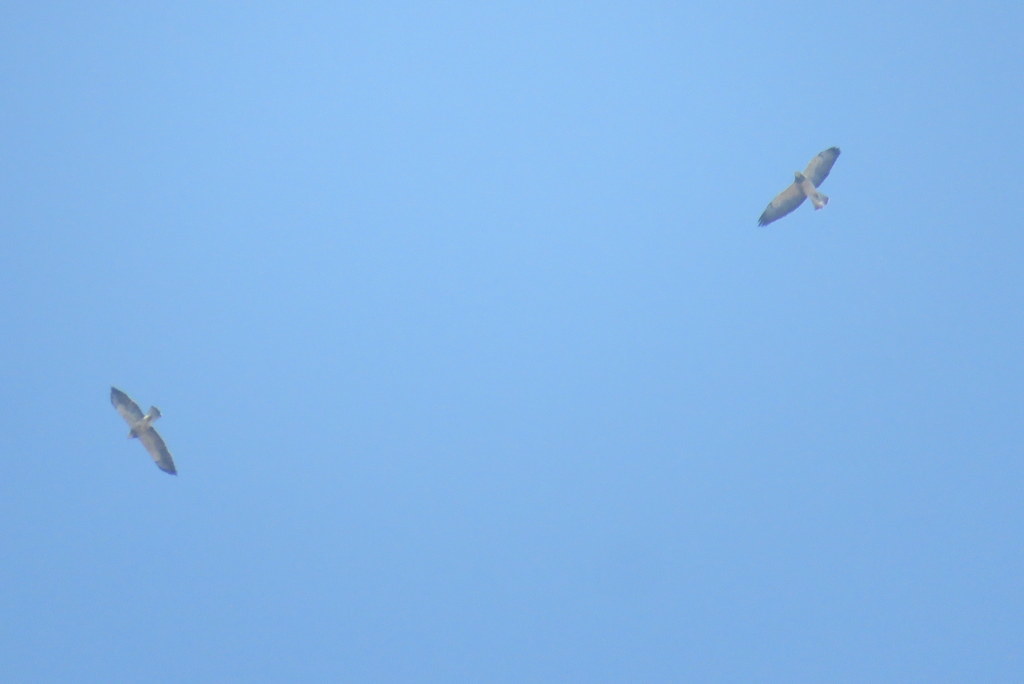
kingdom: Animalia
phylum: Chordata
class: Aves
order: Accipitriformes
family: Accipitridae
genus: Buteo
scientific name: Buteo swainsoni
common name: Swainson's hawk
